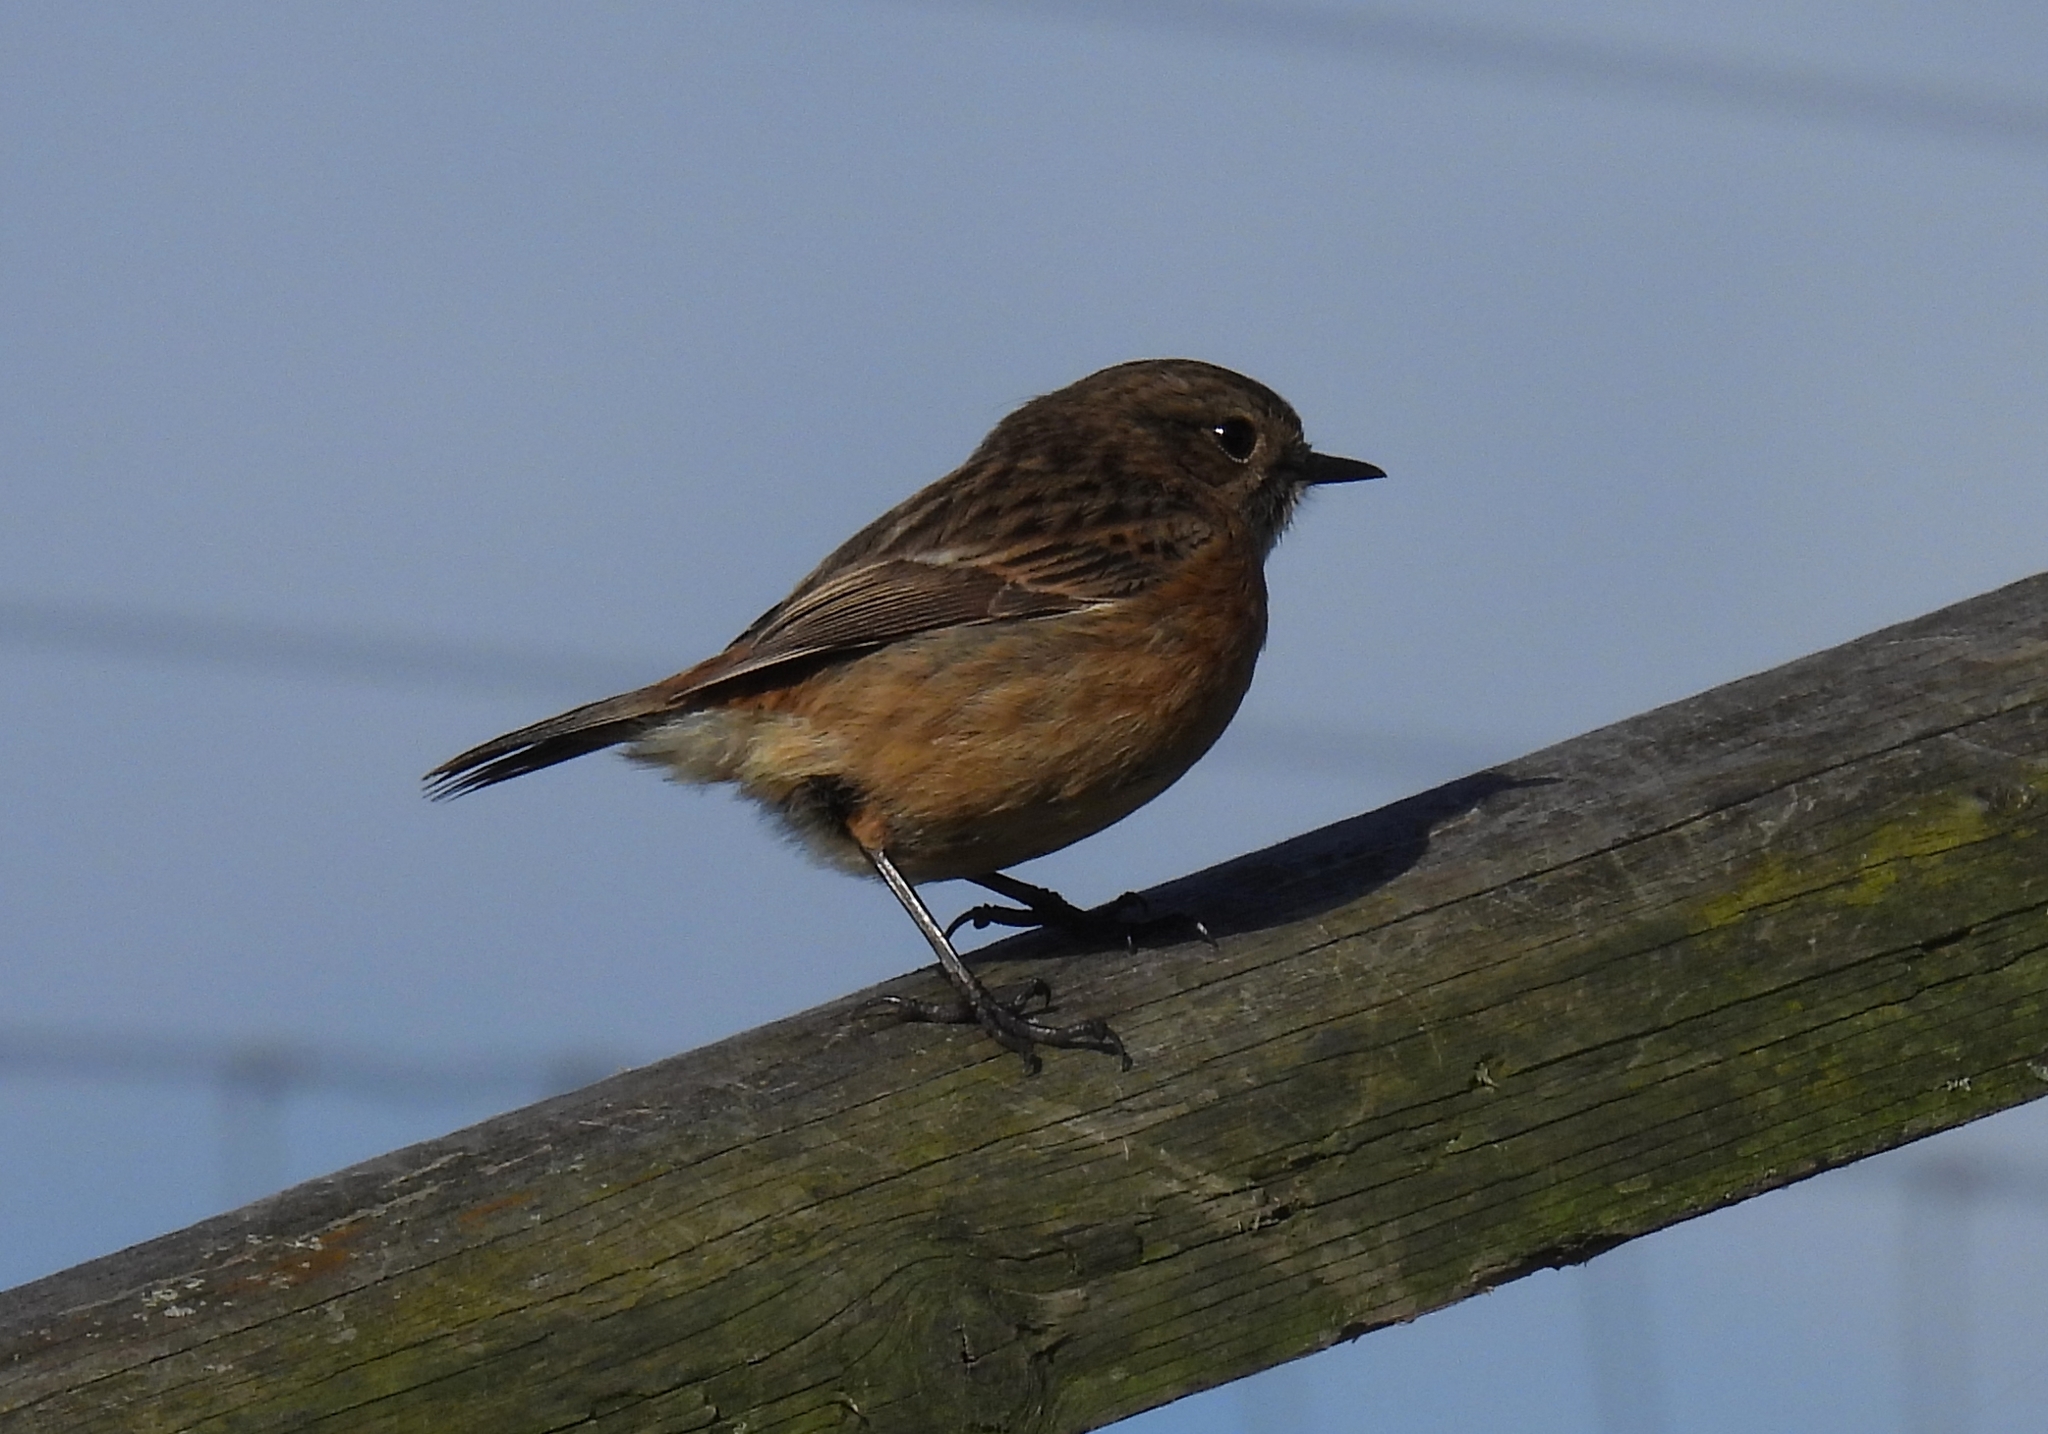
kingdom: Animalia
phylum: Chordata
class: Aves
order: Passeriformes
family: Muscicapidae
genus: Saxicola
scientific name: Saxicola rubicola
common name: European stonechat
